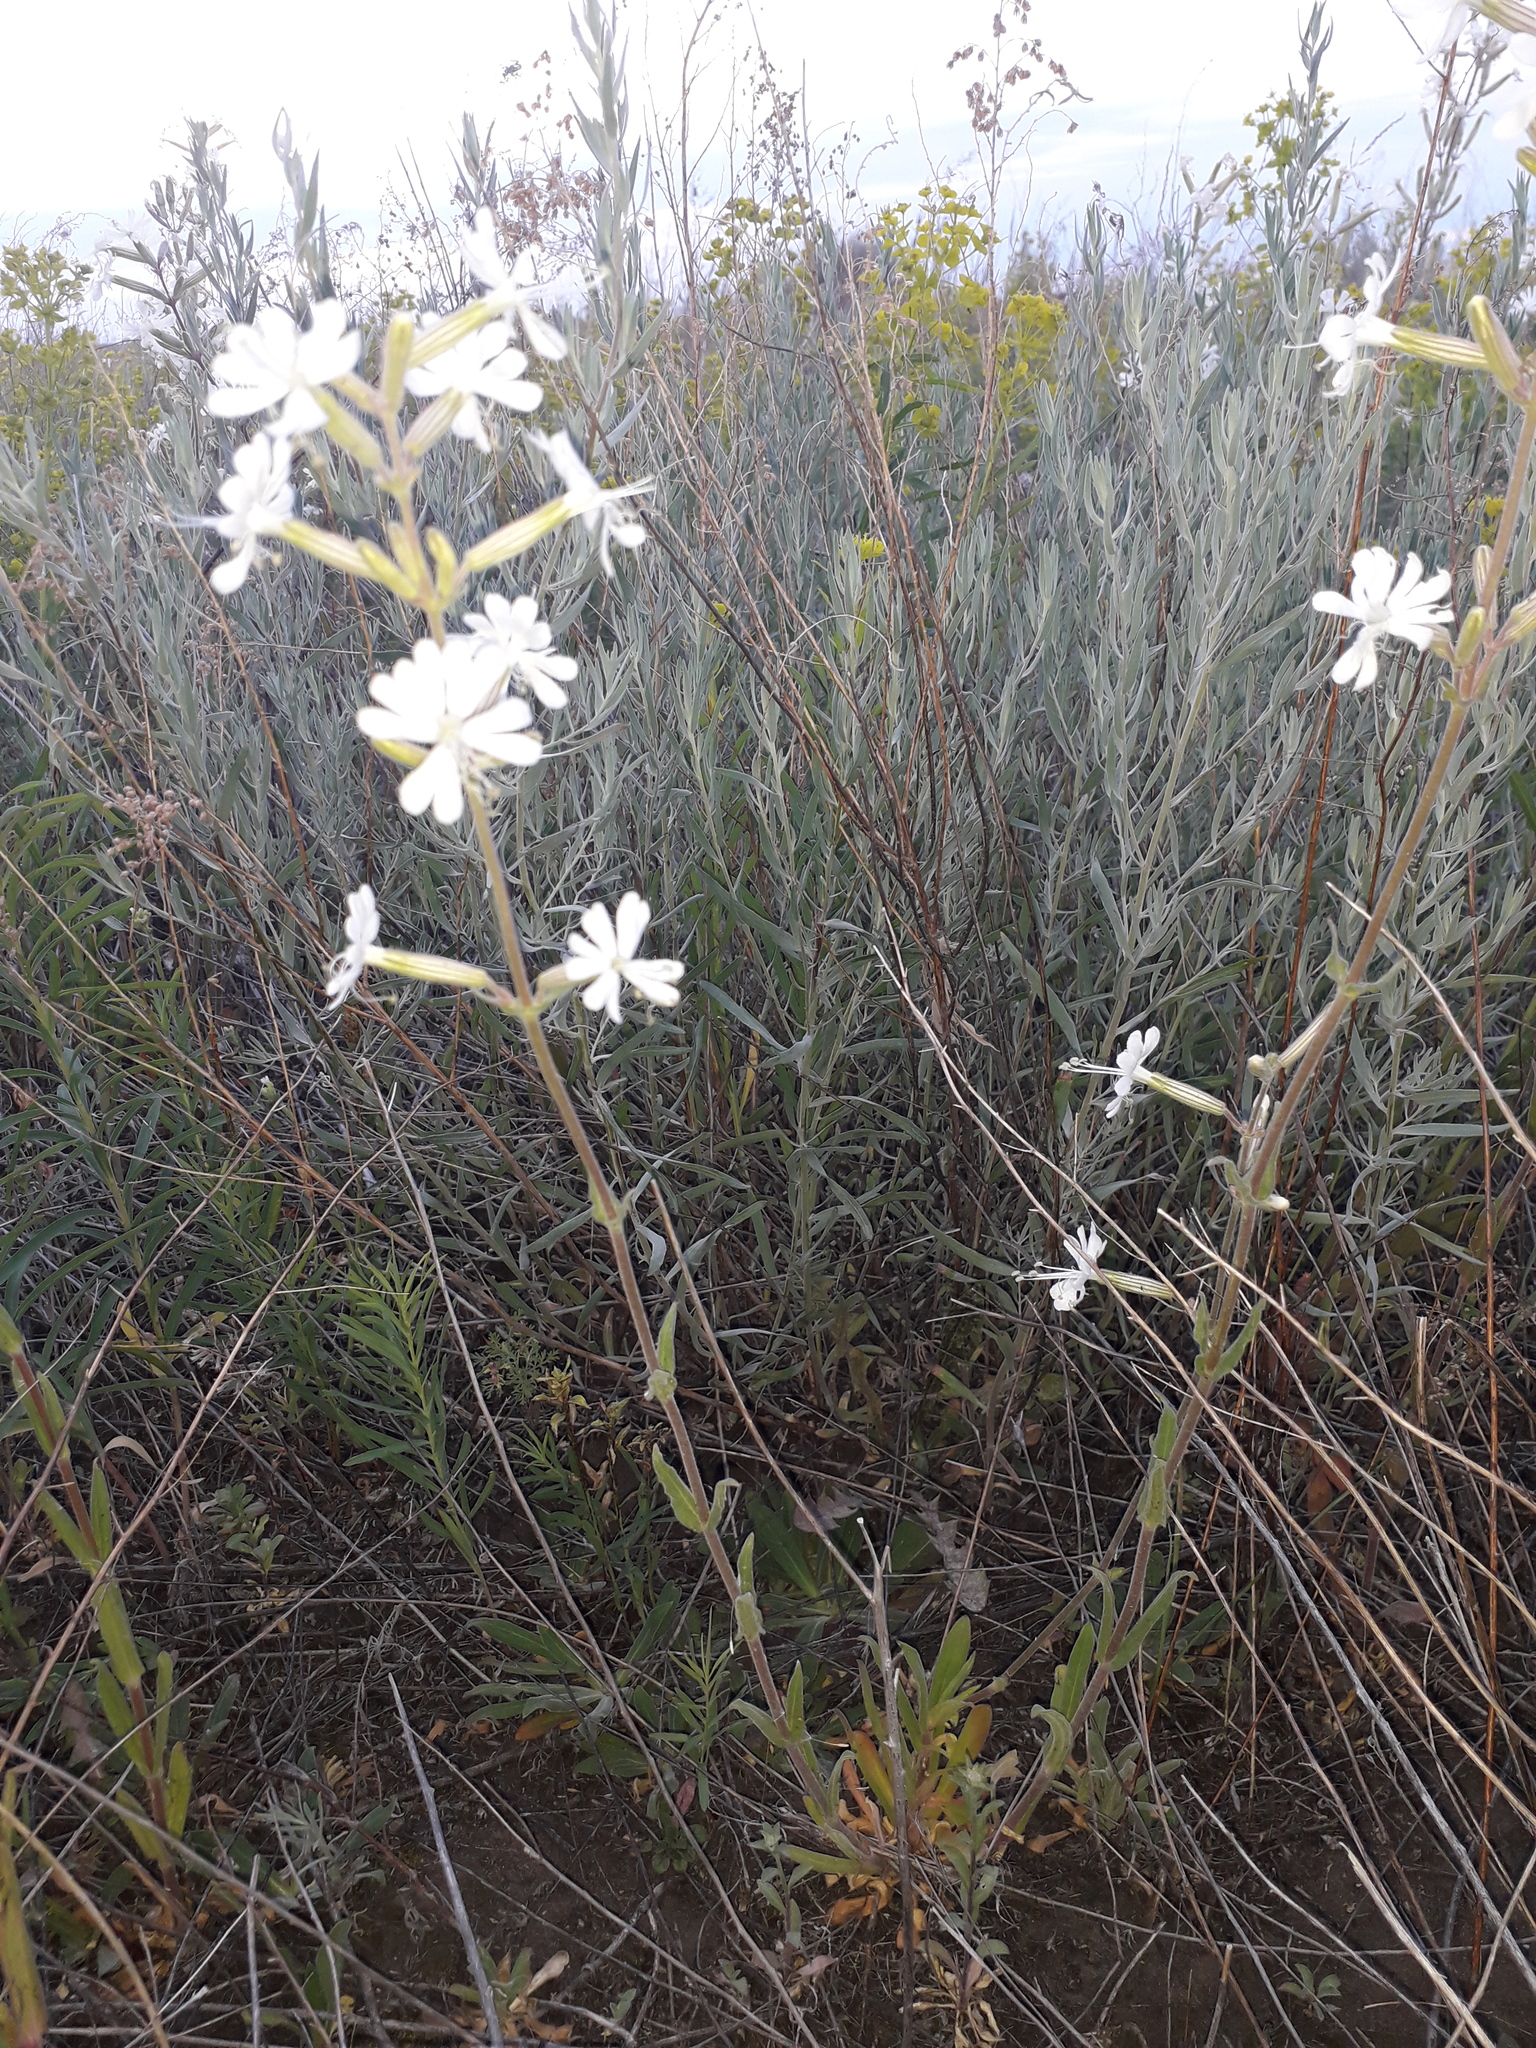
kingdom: Plantae
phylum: Tracheophyta
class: Magnoliopsida
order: Caryophyllales
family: Caryophyllaceae
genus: Silene
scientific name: Silene viscosa
